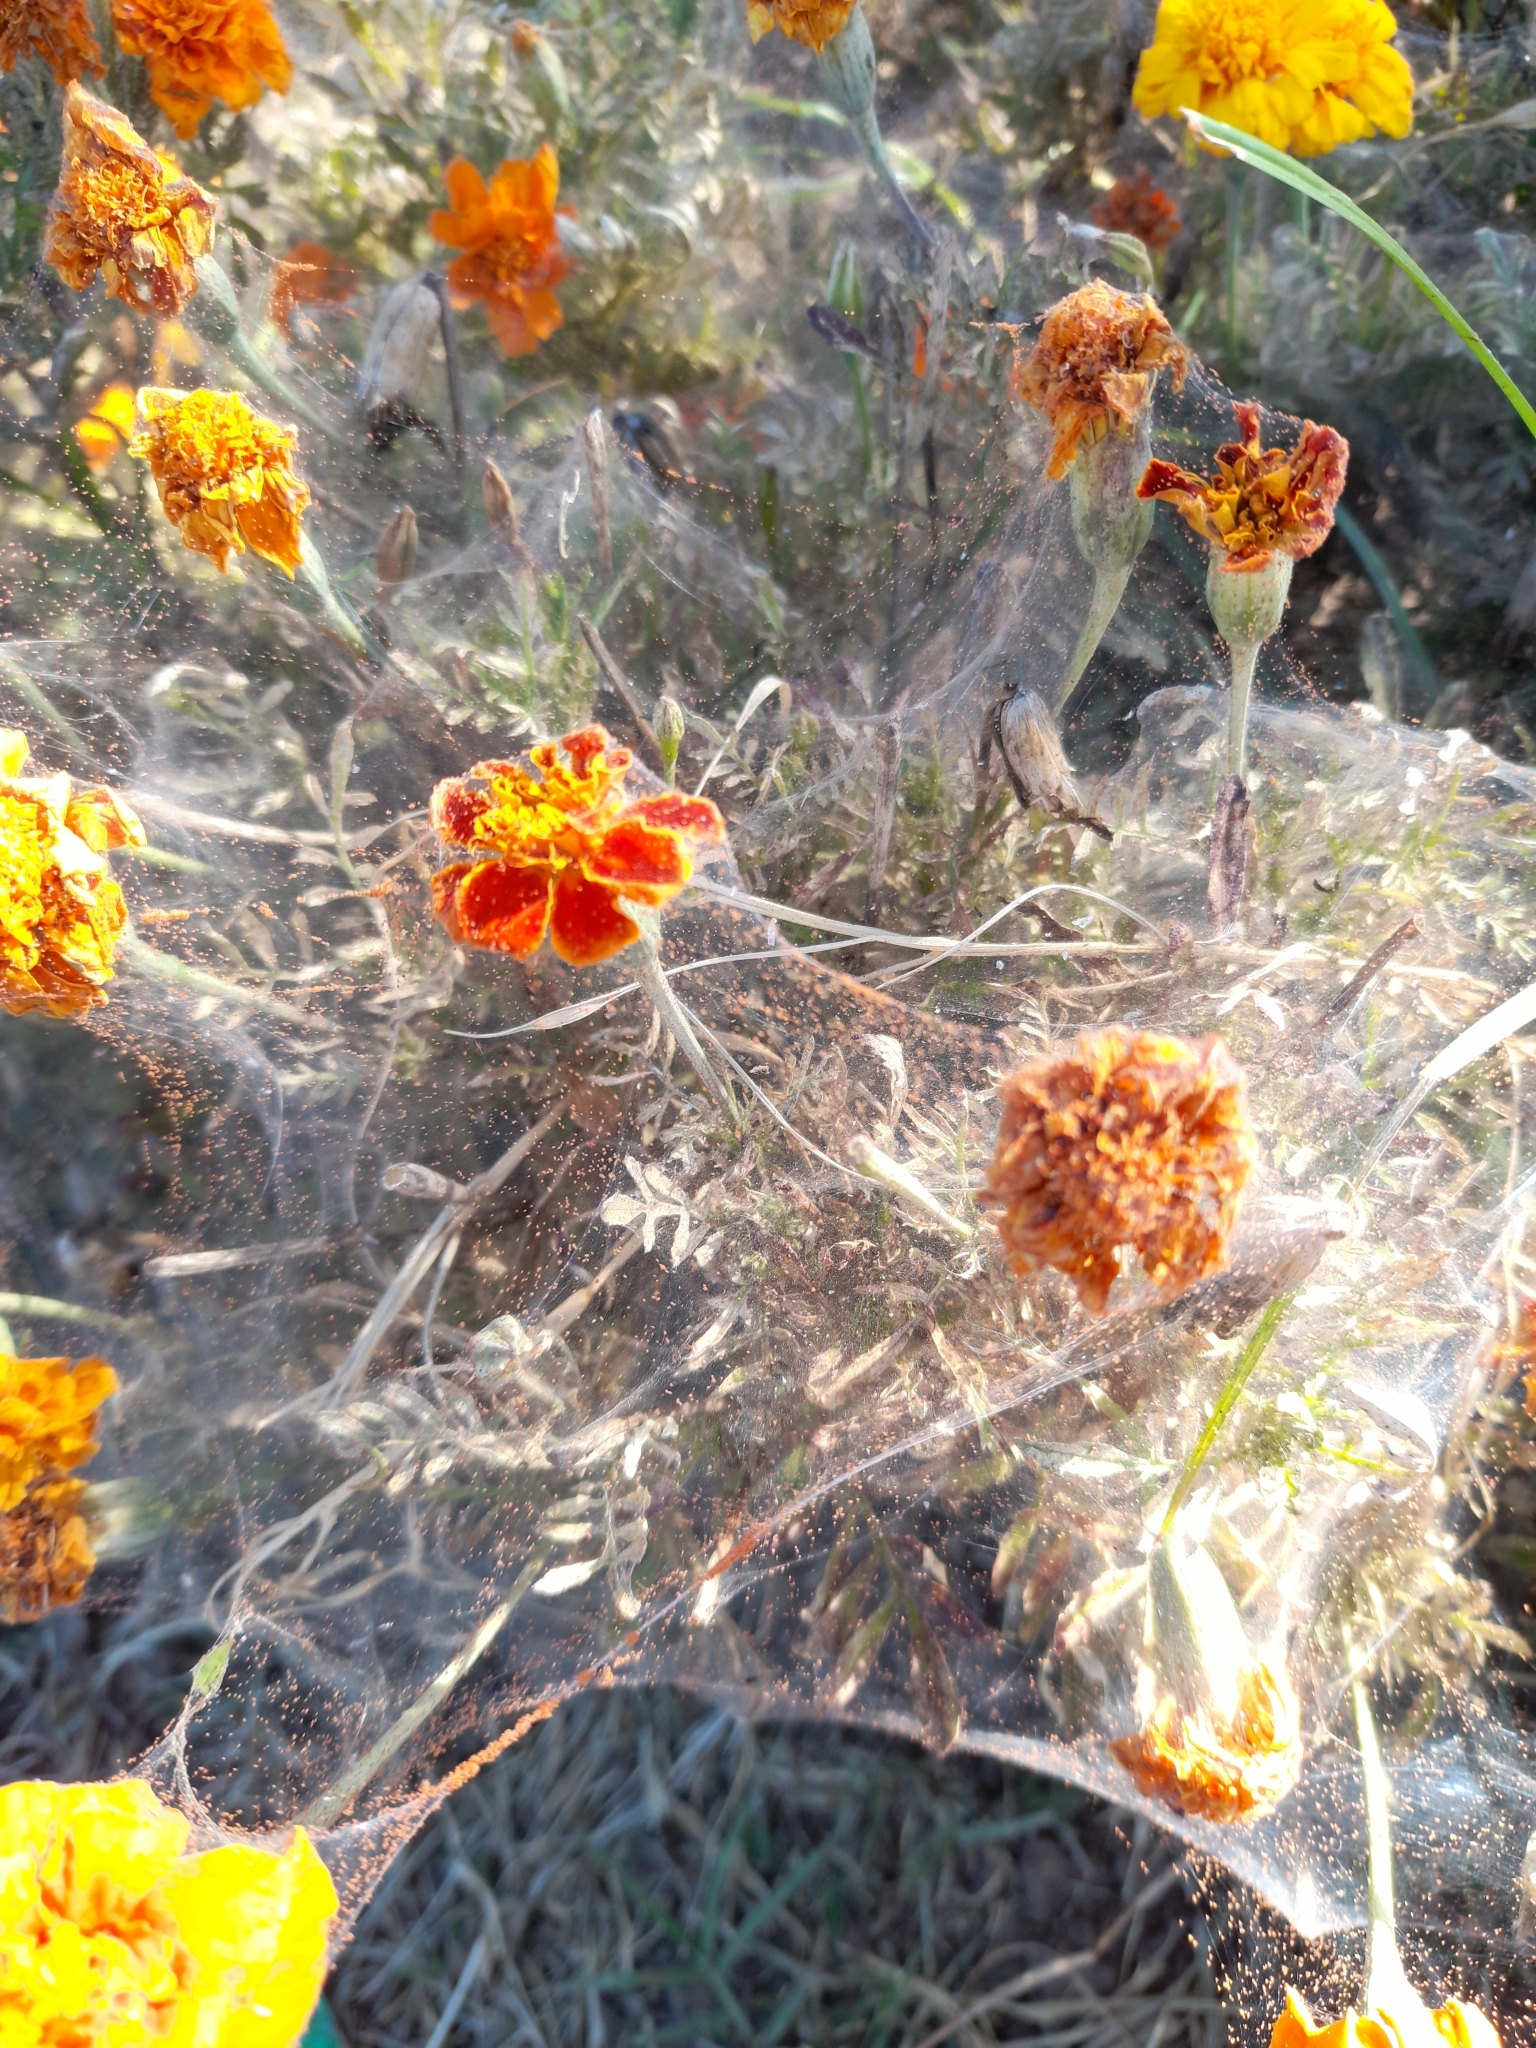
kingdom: Animalia
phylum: Arthropoda
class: Arachnida
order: Trombidiformes
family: Tetranychidae
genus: Tetranychus
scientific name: Tetranychus urticae
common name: Carmine spider mite
